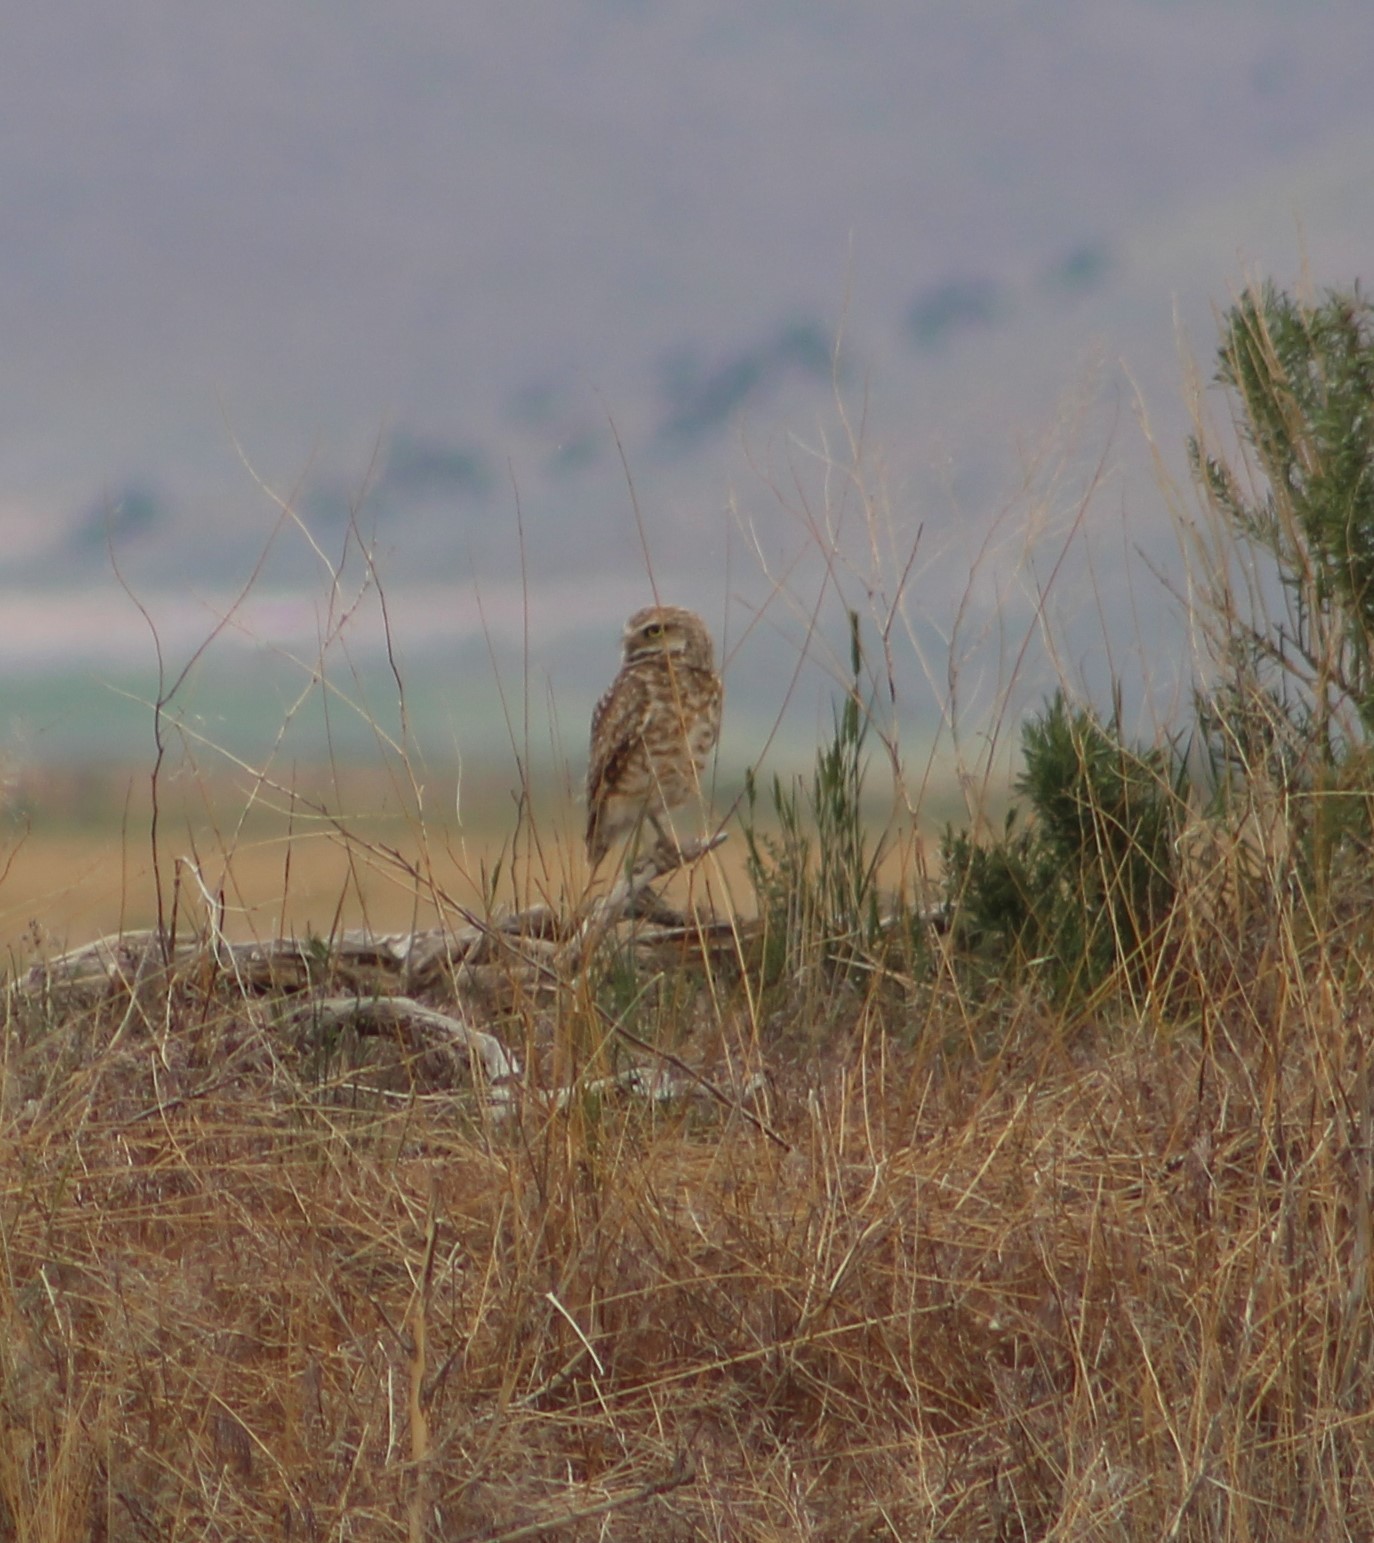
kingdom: Animalia
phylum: Chordata
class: Aves
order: Strigiformes
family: Strigidae
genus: Athene
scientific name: Athene cunicularia
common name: Burrowing owl
